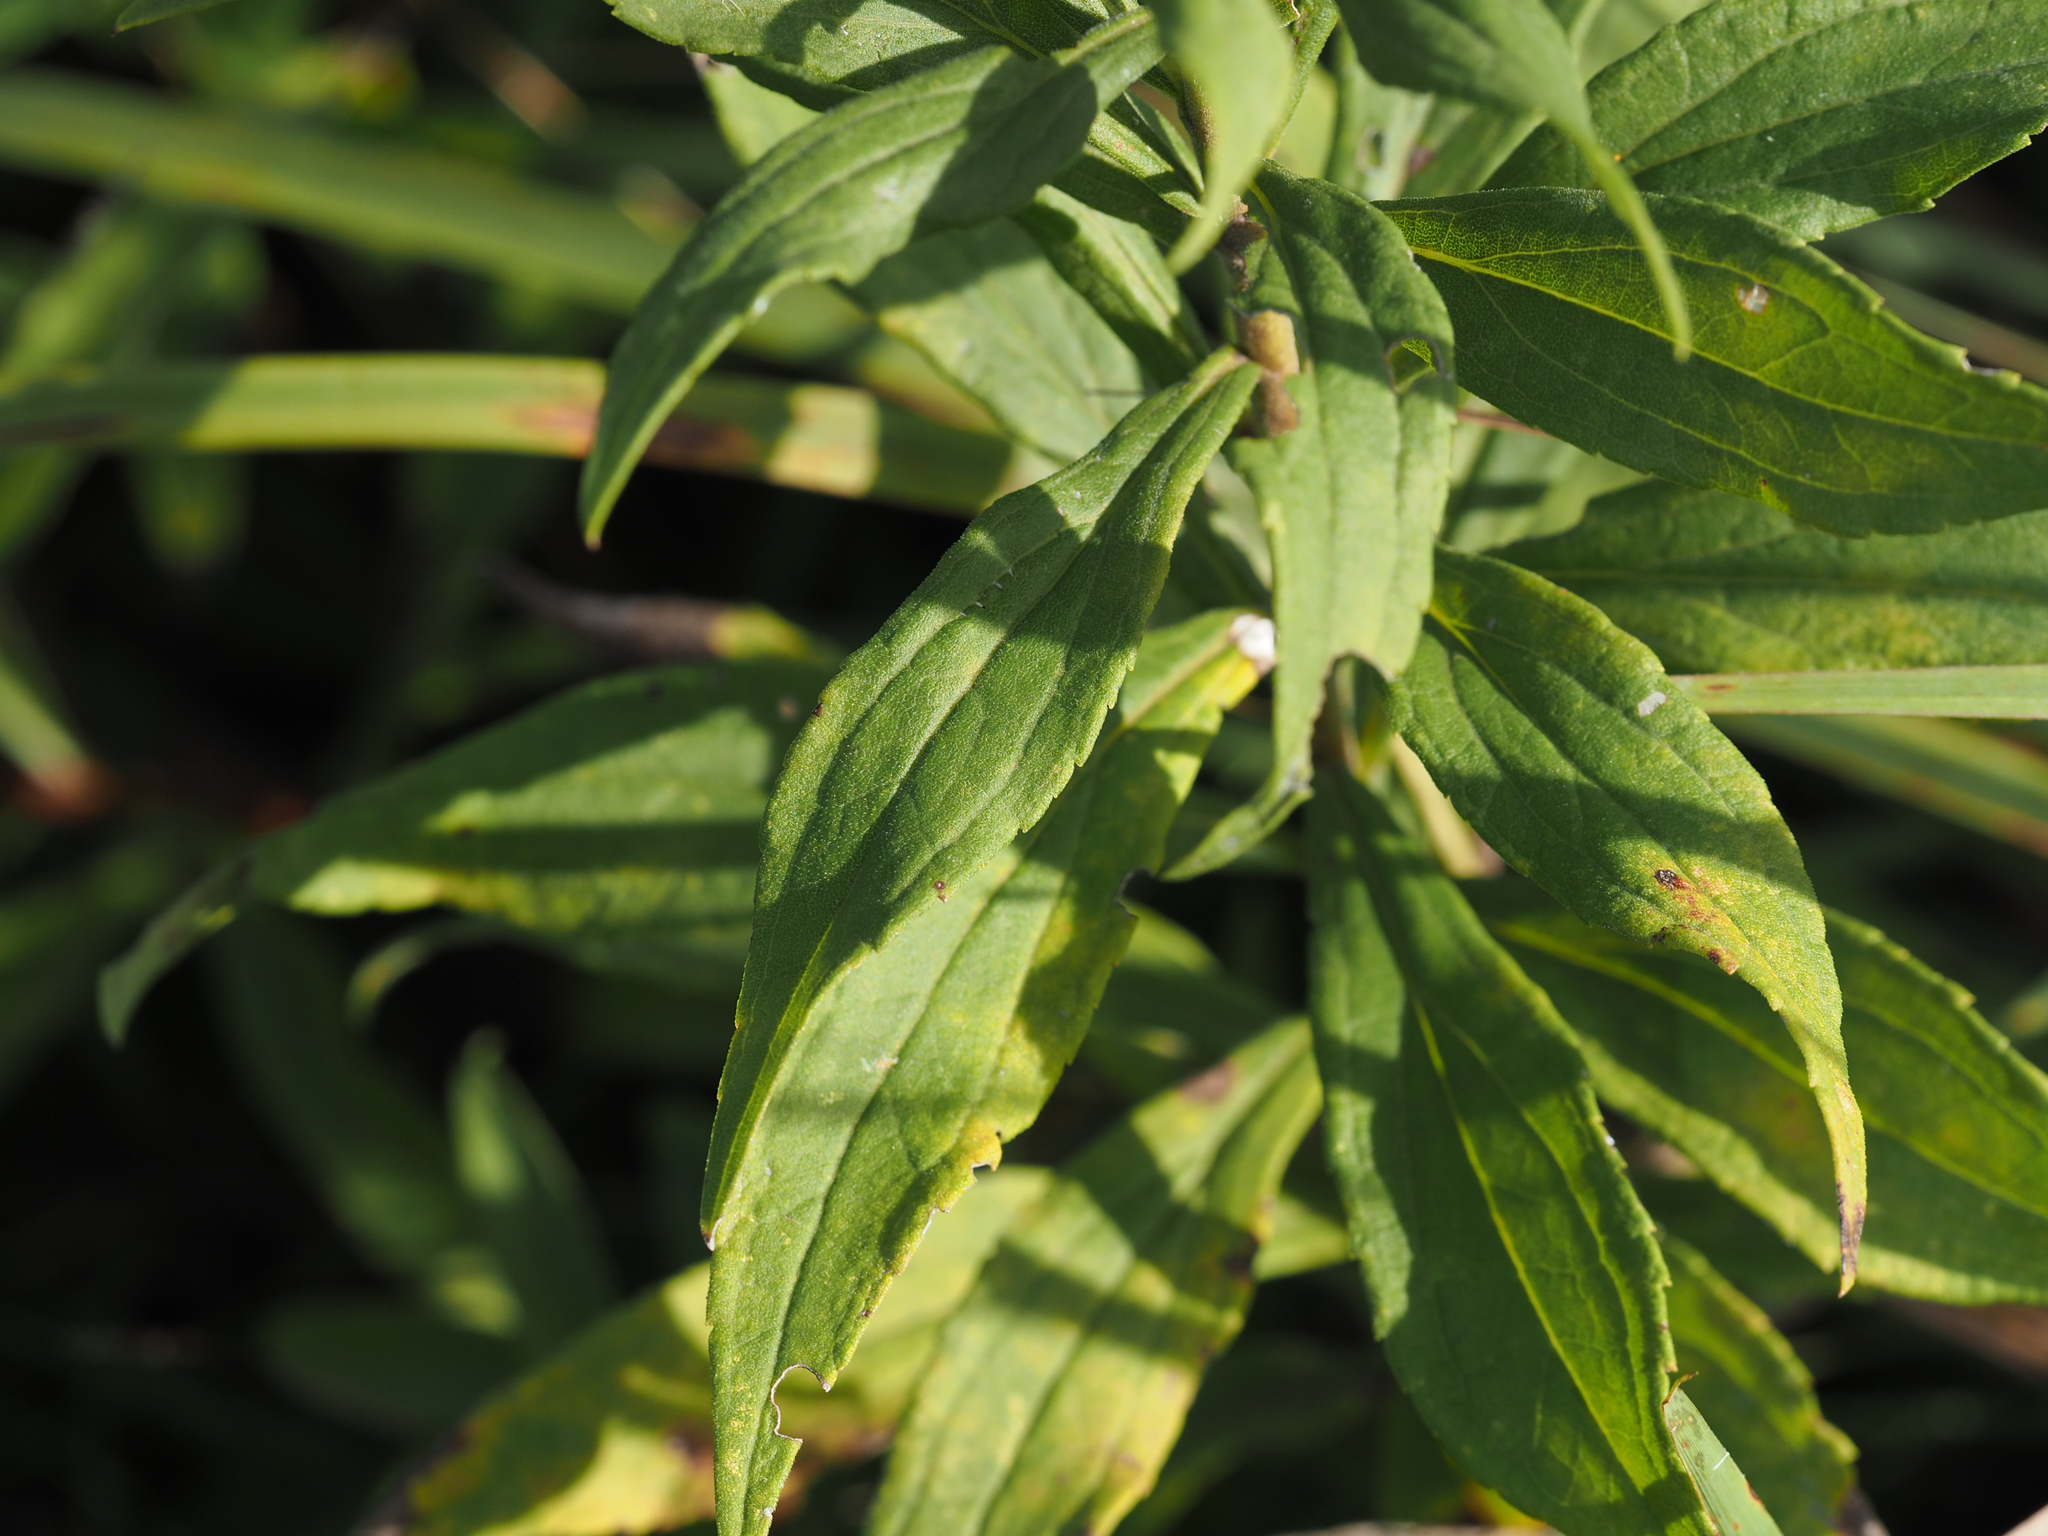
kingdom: Plantae
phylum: Tracheophyta
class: Magnoliopsida
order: Asterales
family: Asteraceae
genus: Solidago
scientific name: Solidago altissima
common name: Late goldenrod
